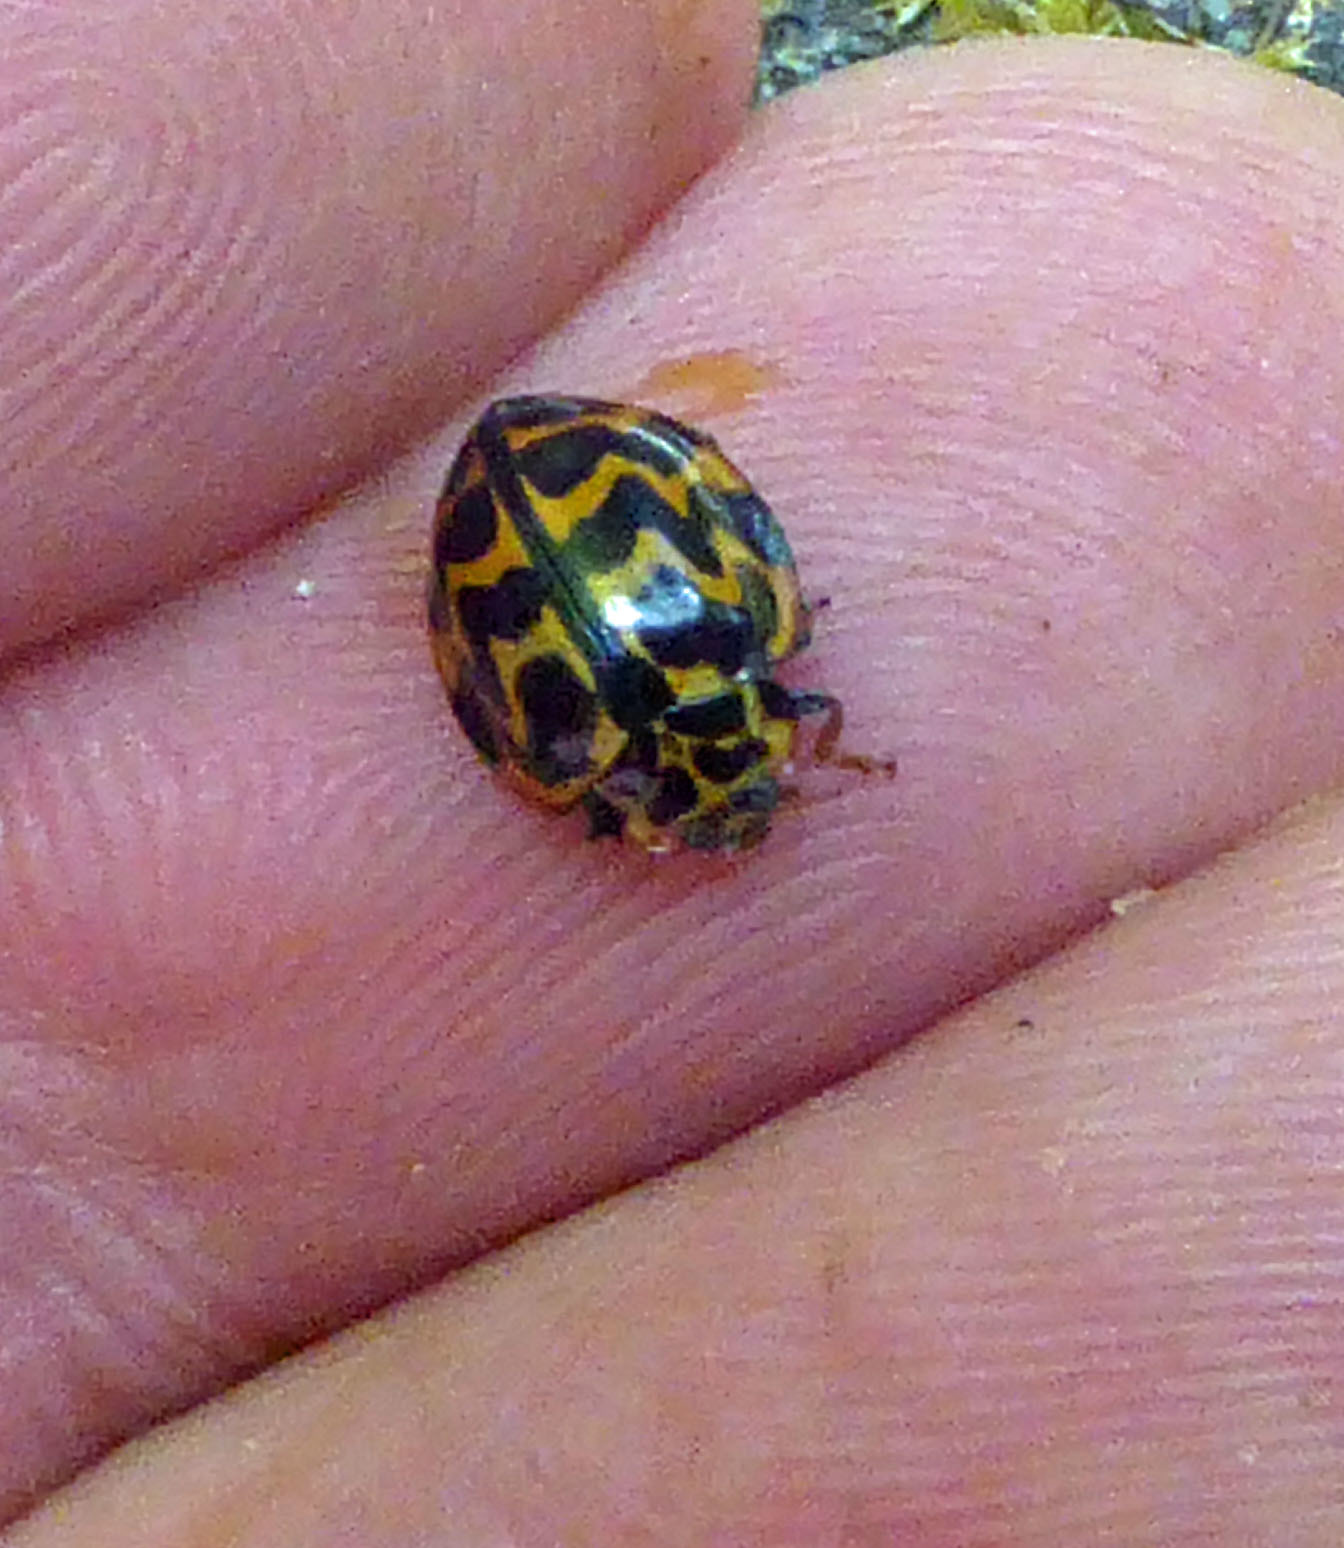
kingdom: Animalia
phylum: Arthropoda
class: Insecta
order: Coleoptera
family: Coccinellidae
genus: Cleobora
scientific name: Cleobora
